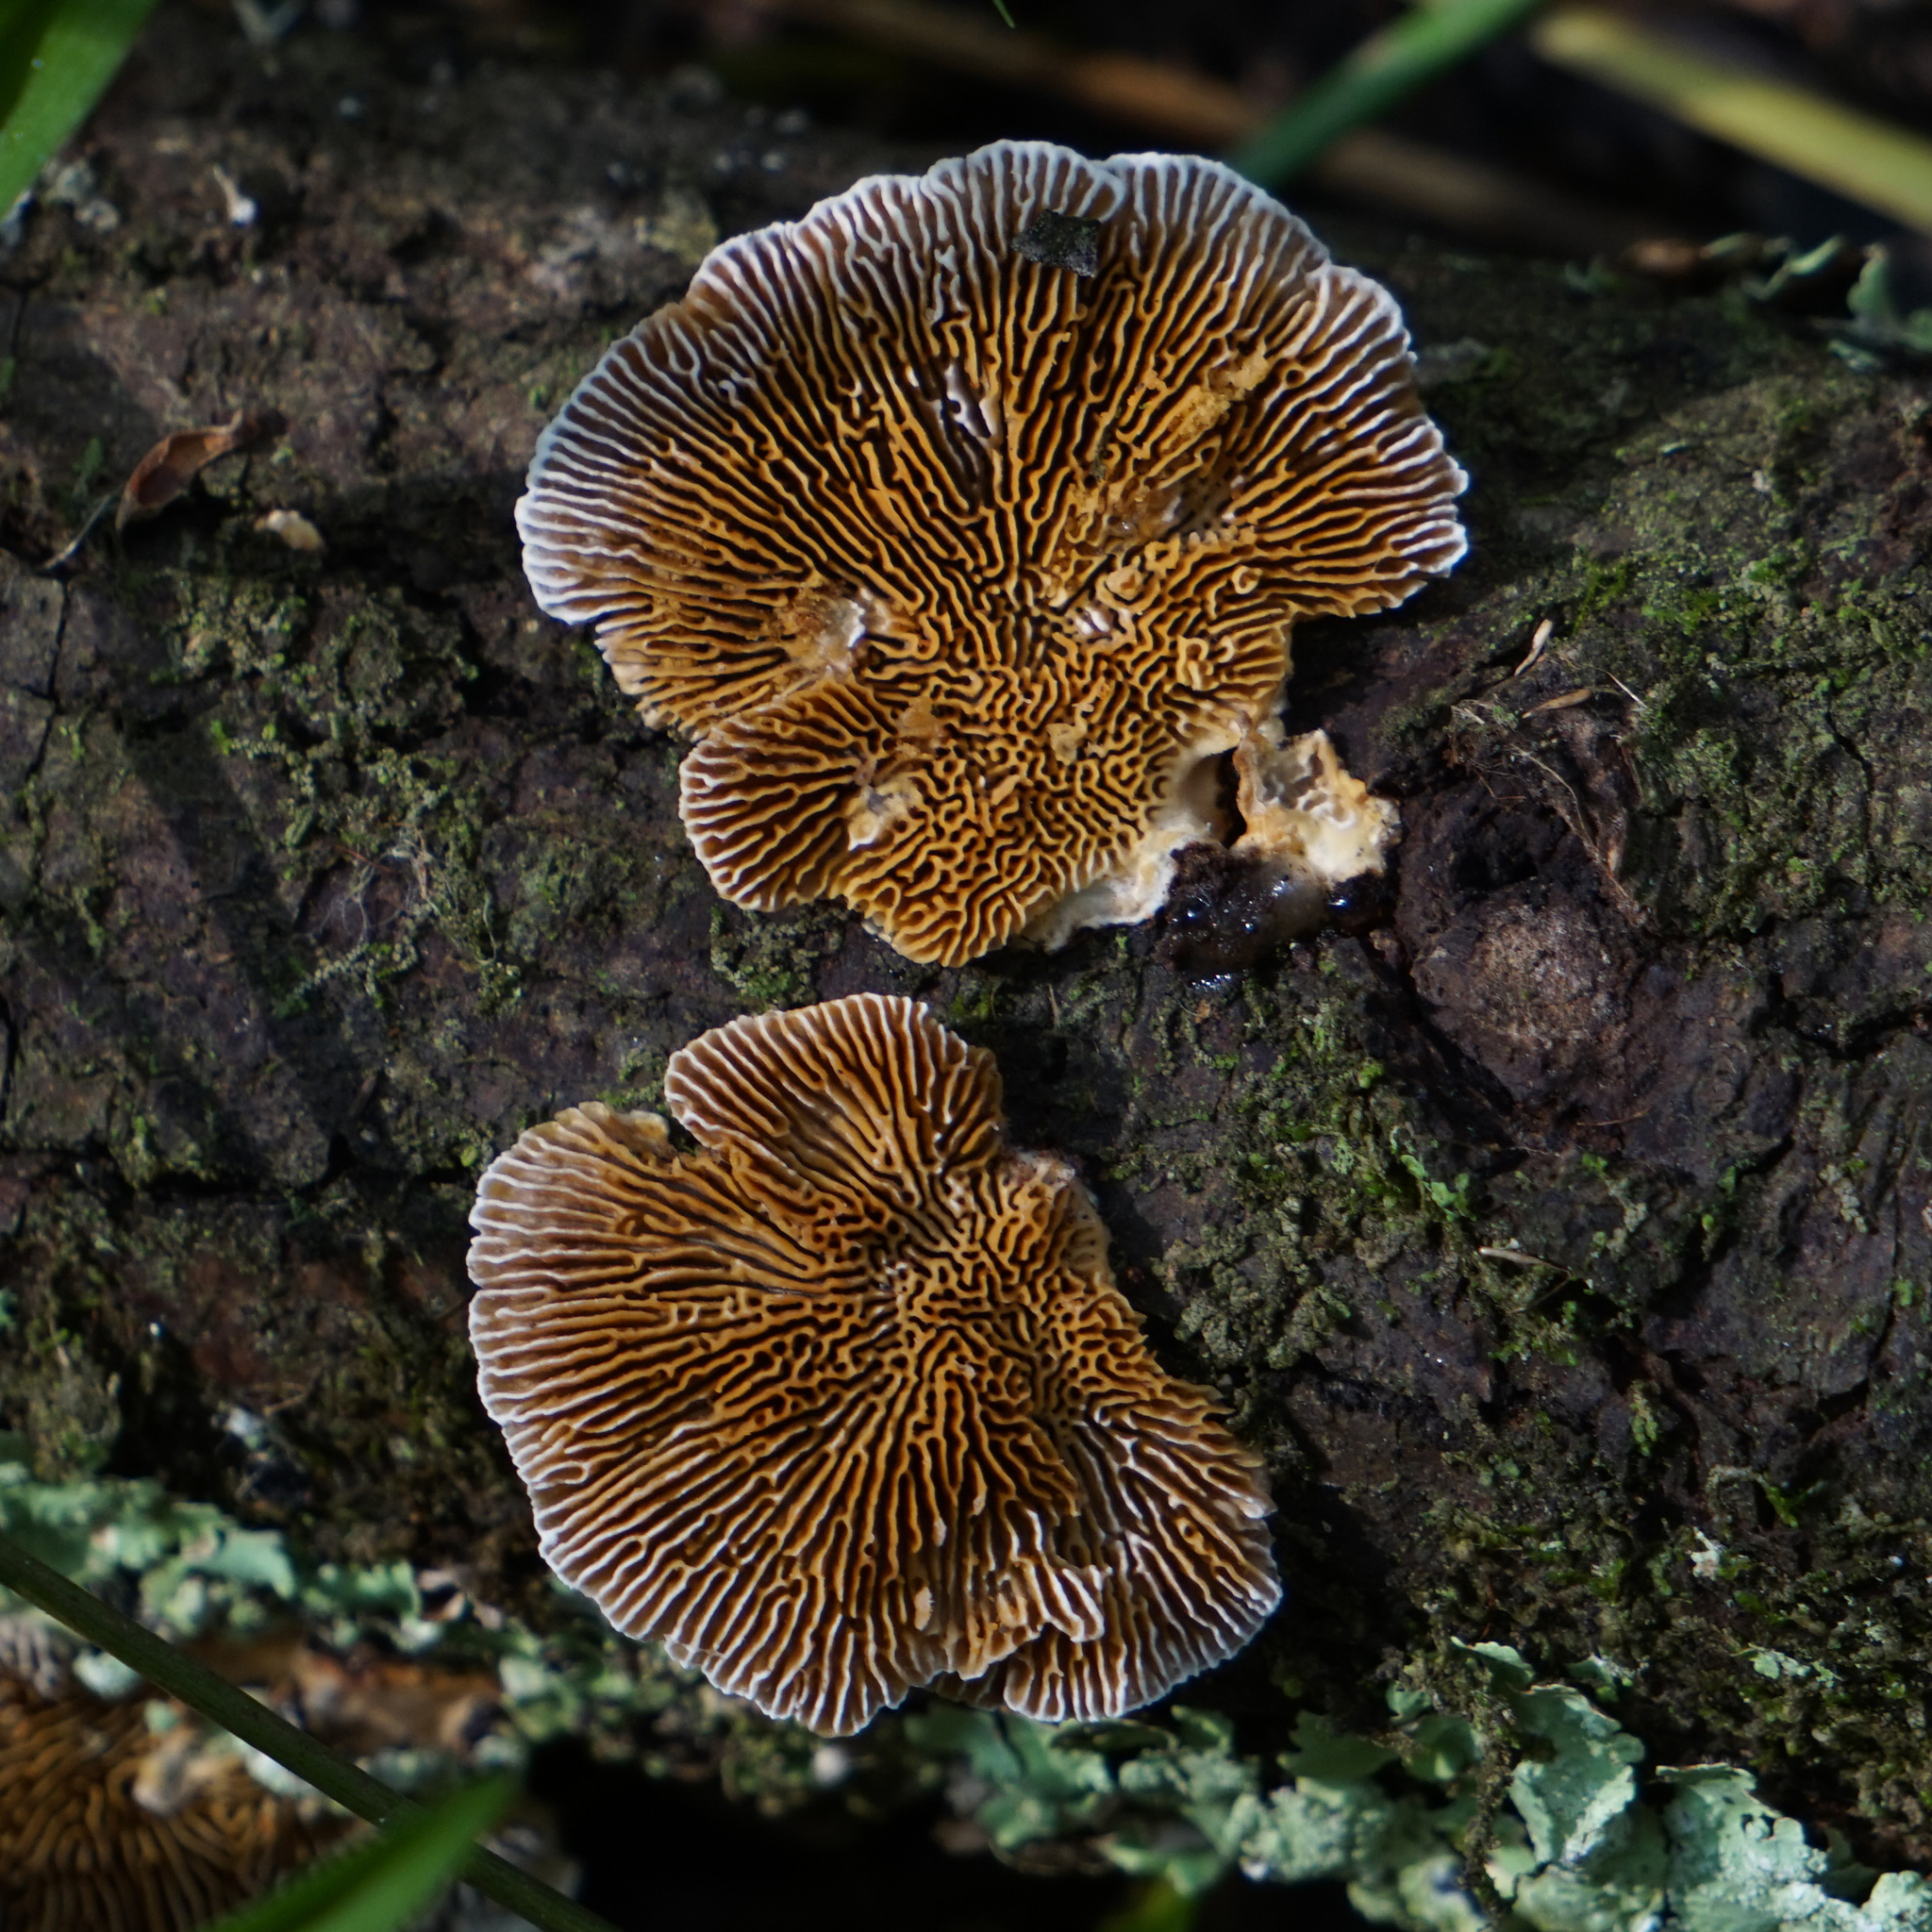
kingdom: Fungi
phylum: Basidiomycota
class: Agaricomycetes
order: Polyporales
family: Polyporaceae
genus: Daedaleopsis
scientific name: Daedaleopsis confragosa
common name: Blushing bracket
